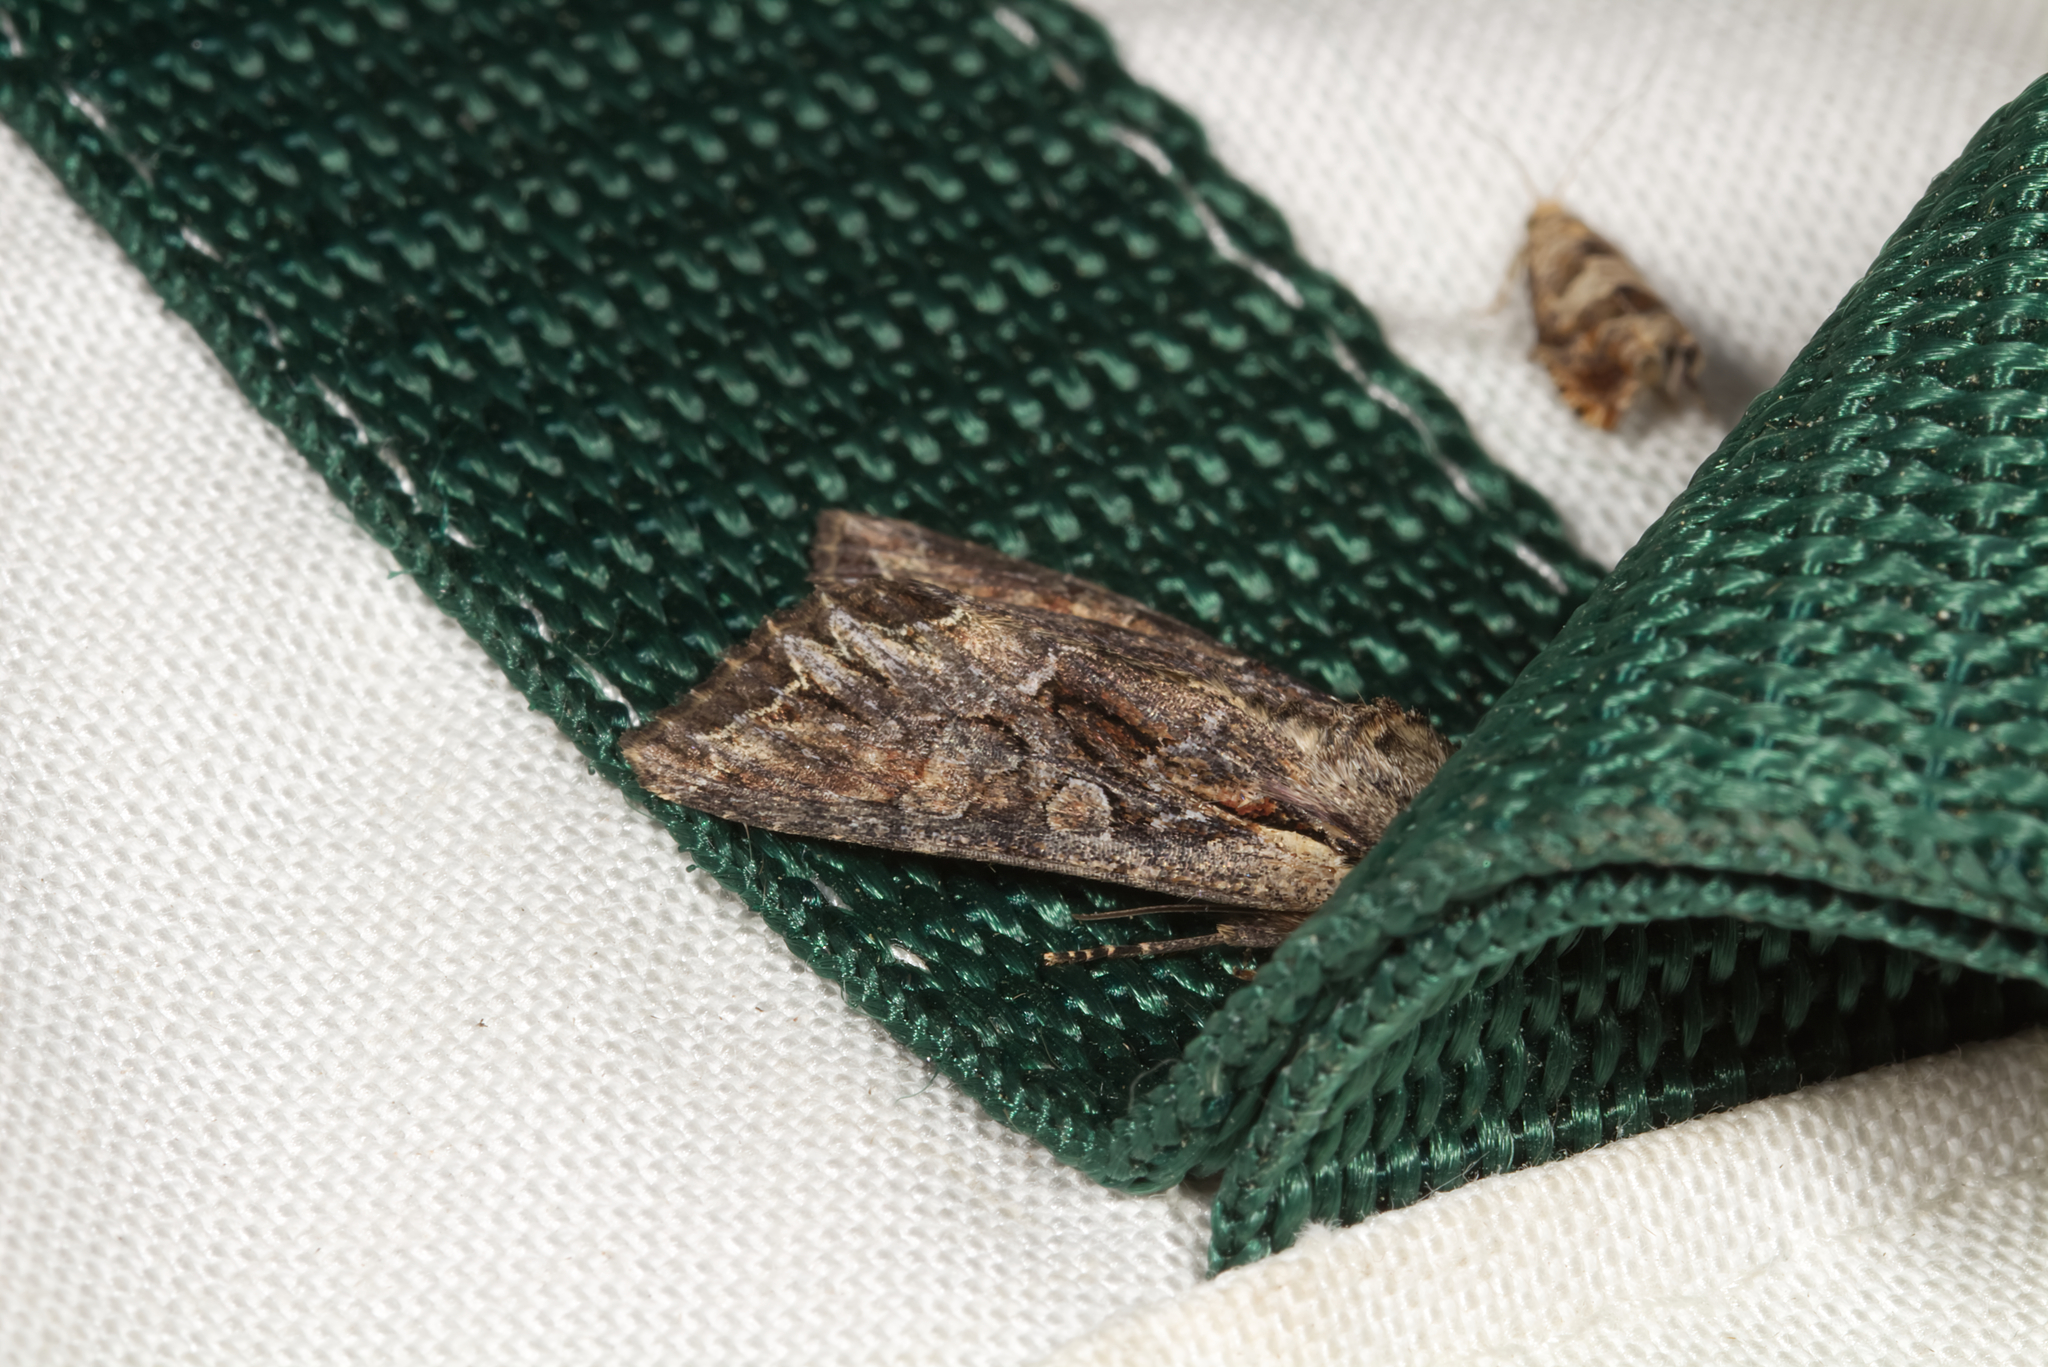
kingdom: Animalia
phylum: Arthropoda
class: Insecta
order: Lepidoptera
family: Noctuidae
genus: Lacanobia
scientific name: Lacanobia thalassina
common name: Pale-shouldered brocade
